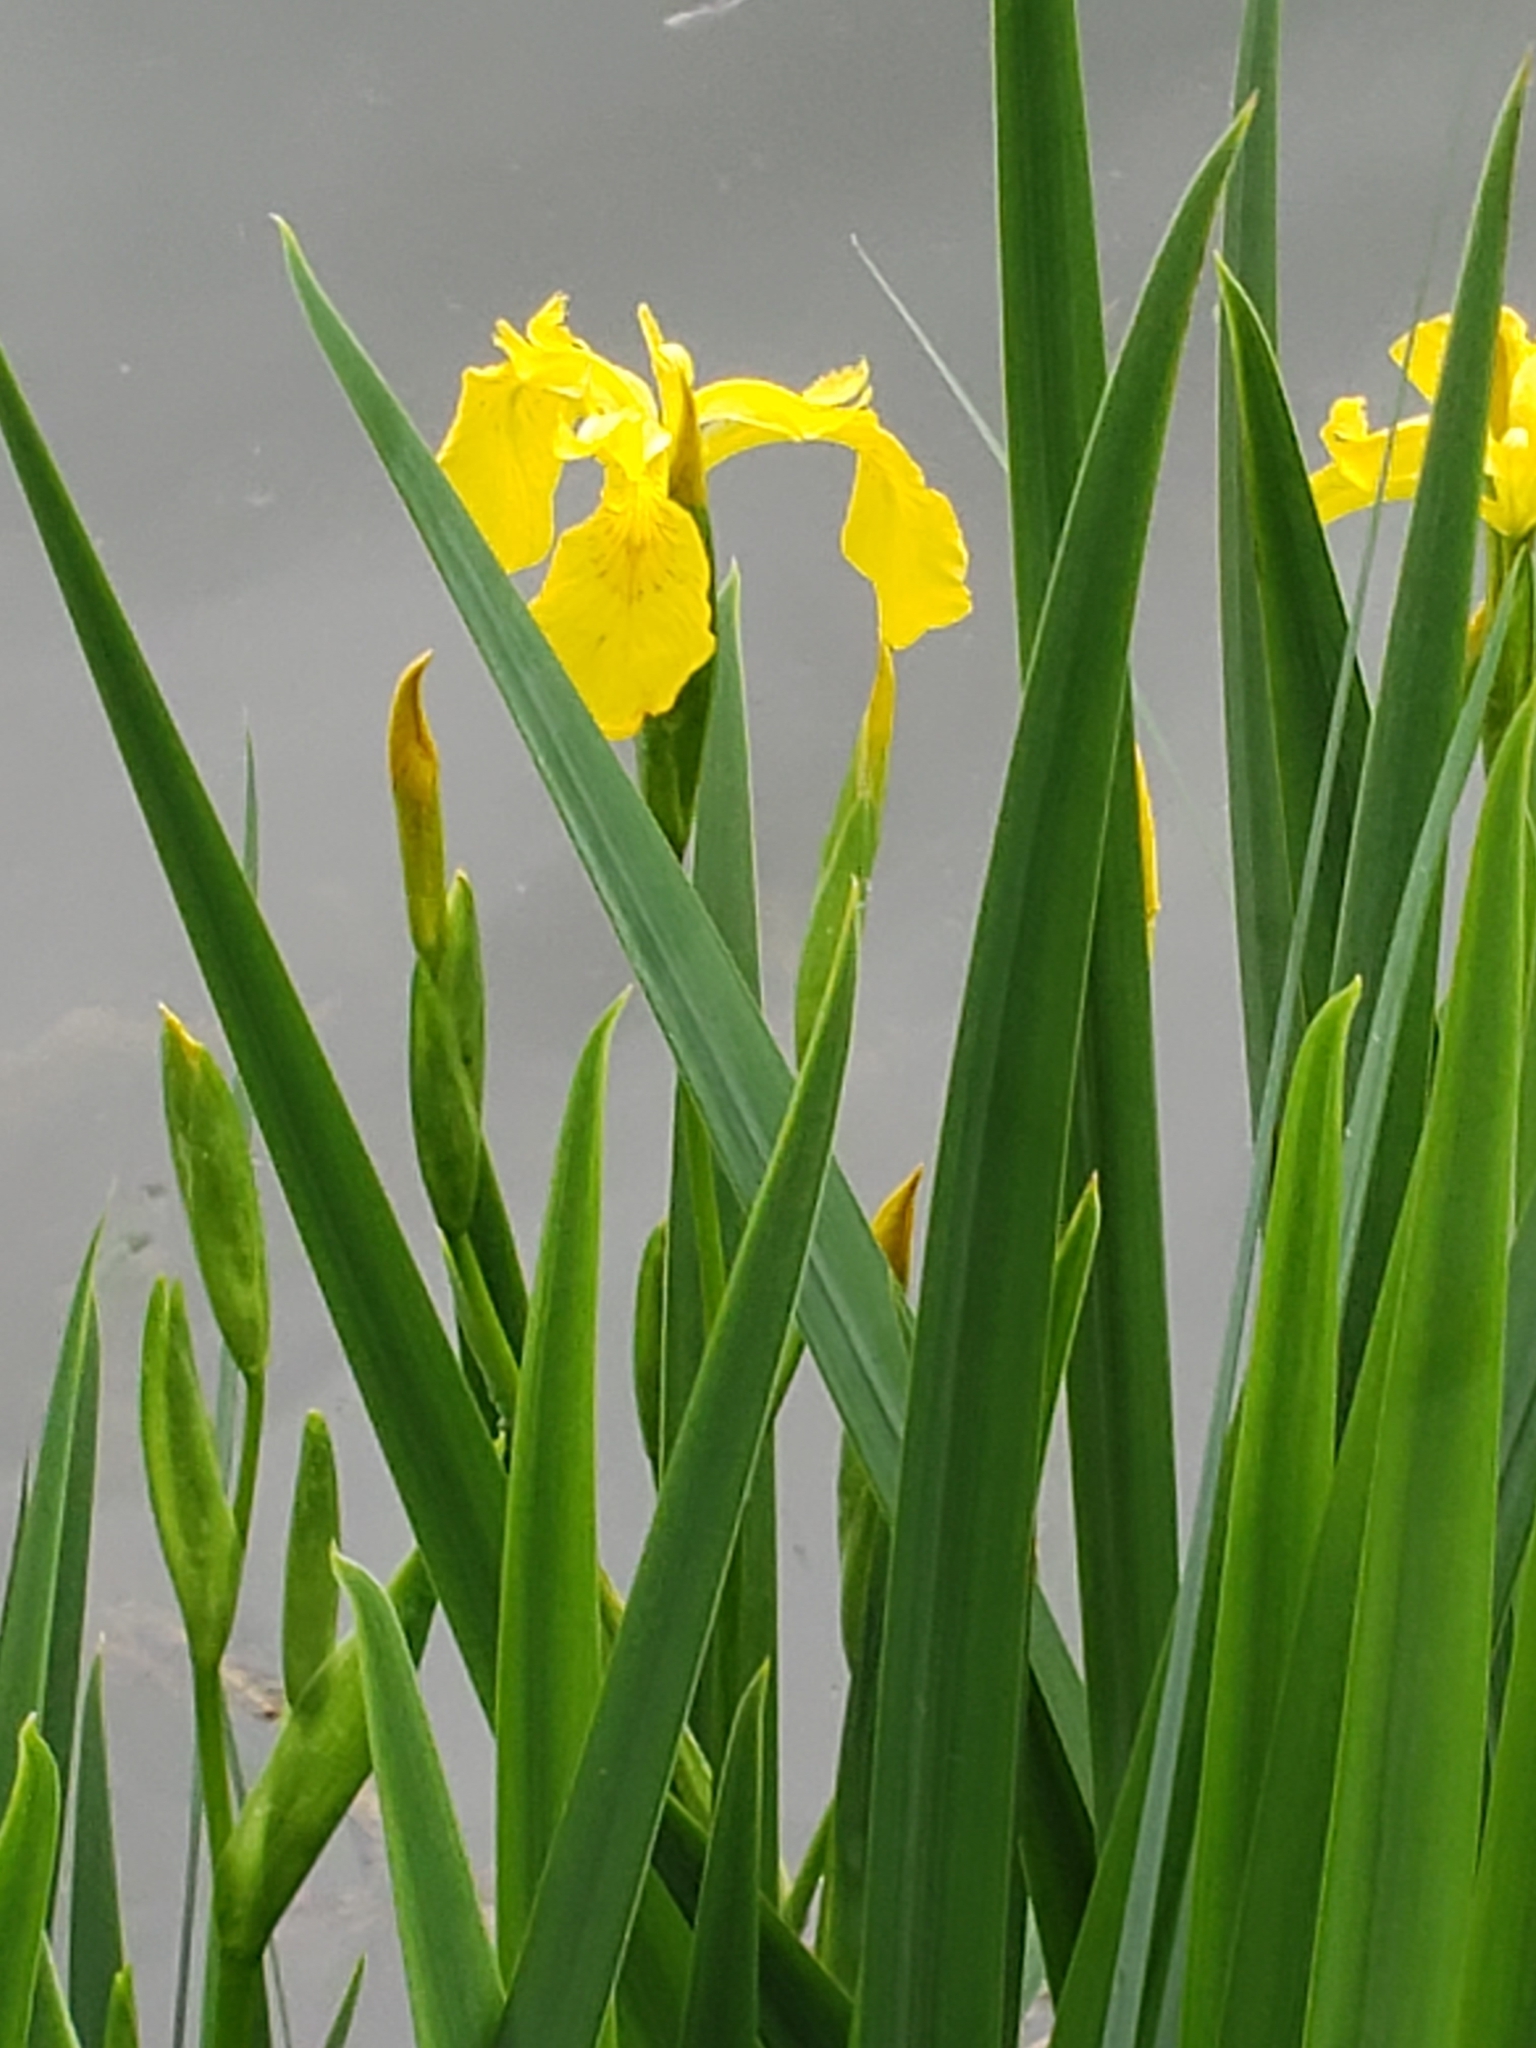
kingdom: Plantae
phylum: Tracheophyta
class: Liliopsida
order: Asparagales
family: Iridaceae
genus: Iris
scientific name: Iris pseudacorus
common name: Yellow flag
